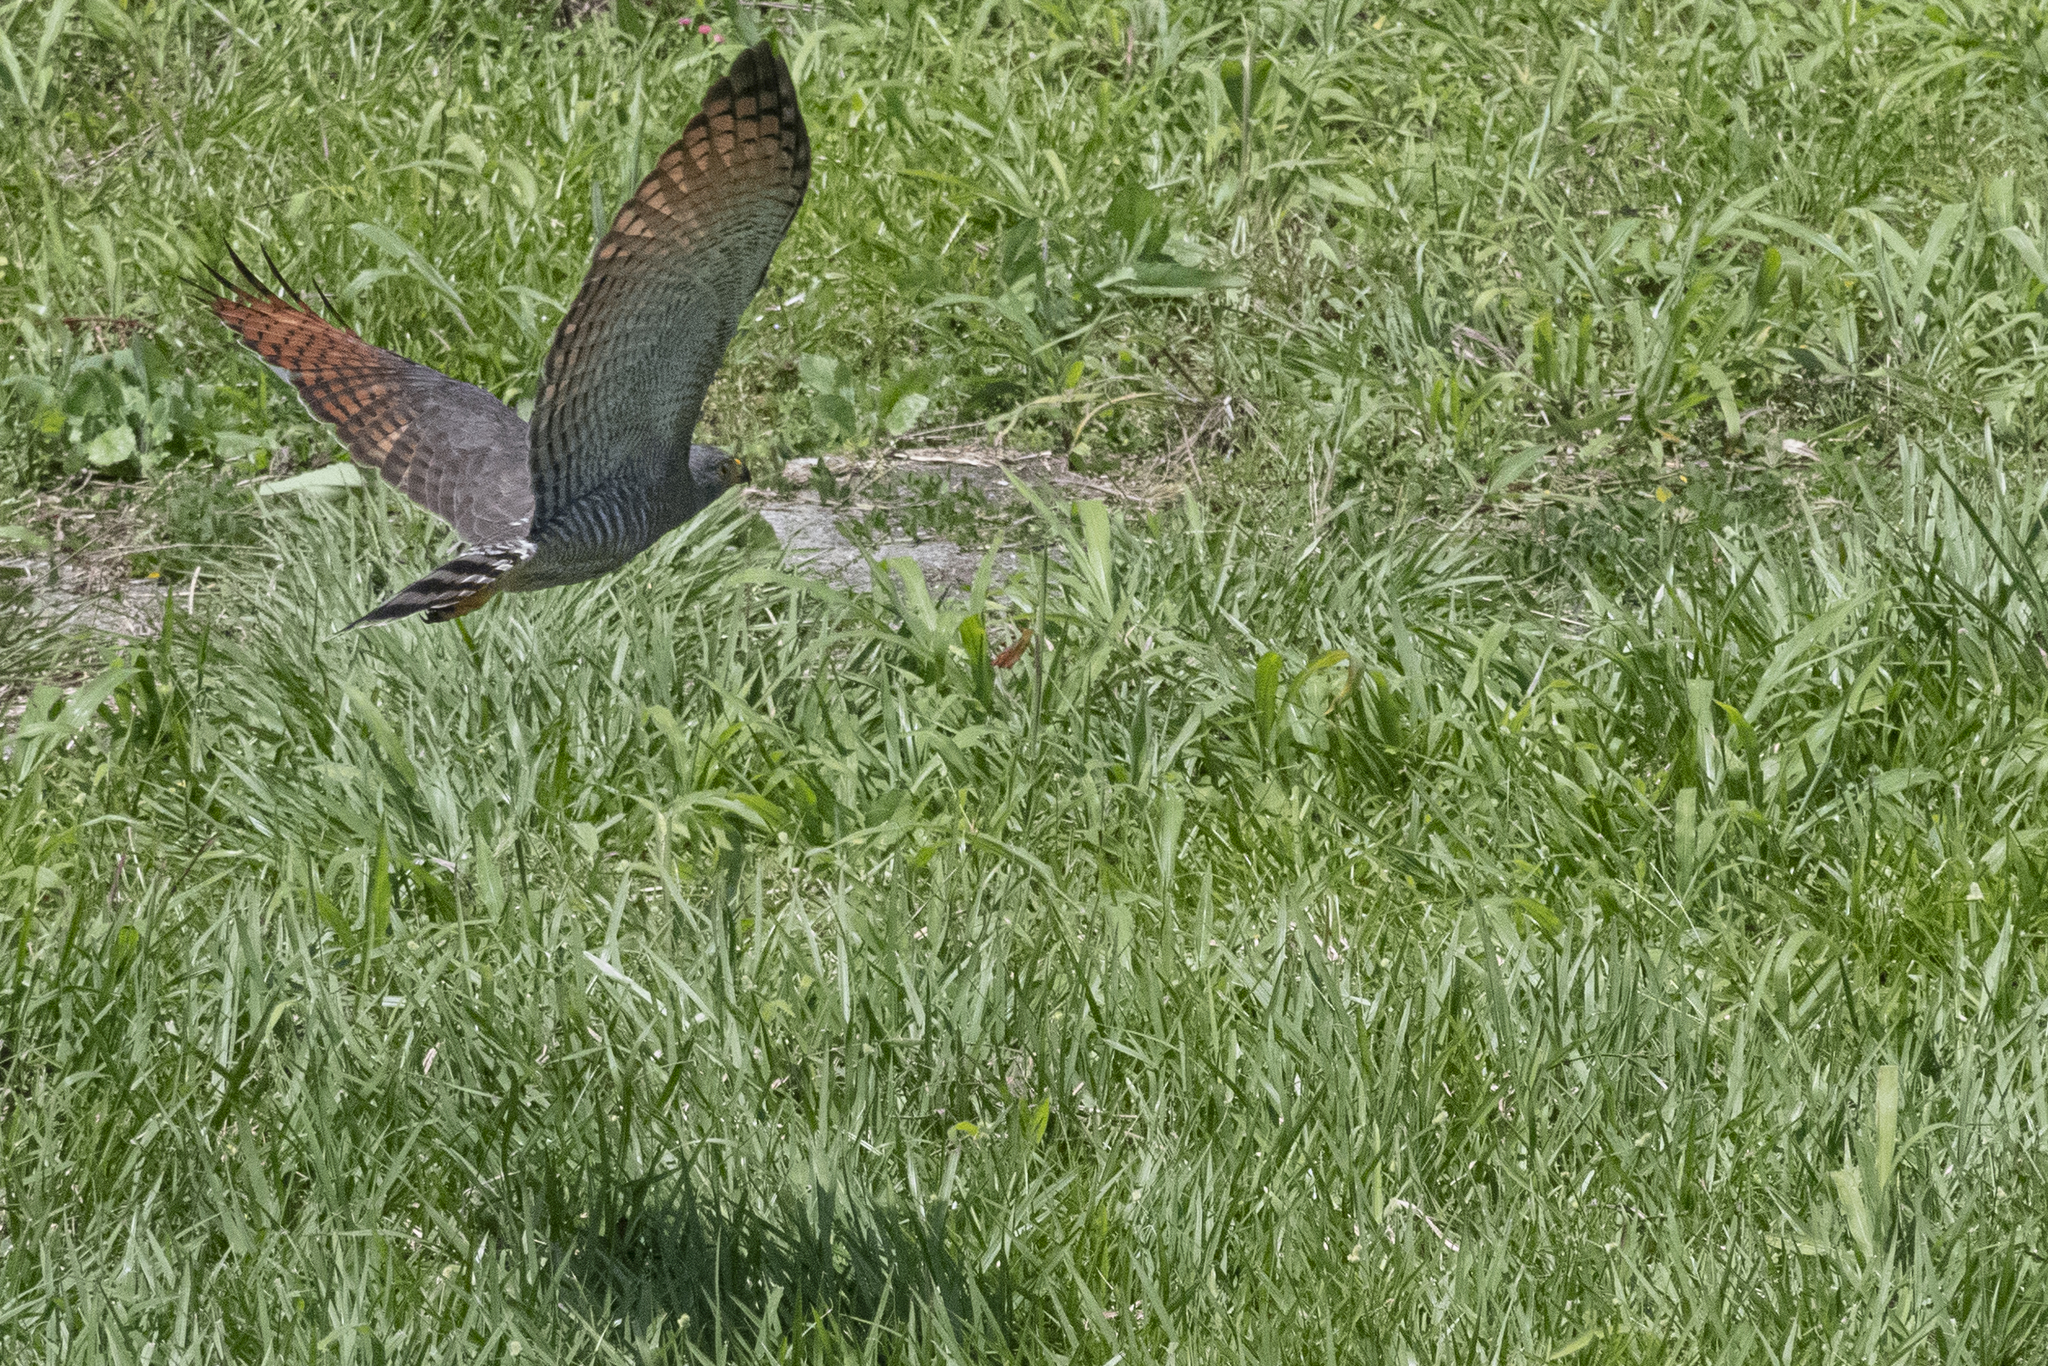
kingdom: Animalia
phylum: Chordata
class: Aves
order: Accipitriformes
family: Accipitridae
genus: Rupornis
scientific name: Rupornis magnirostris
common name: Roadside hawk
